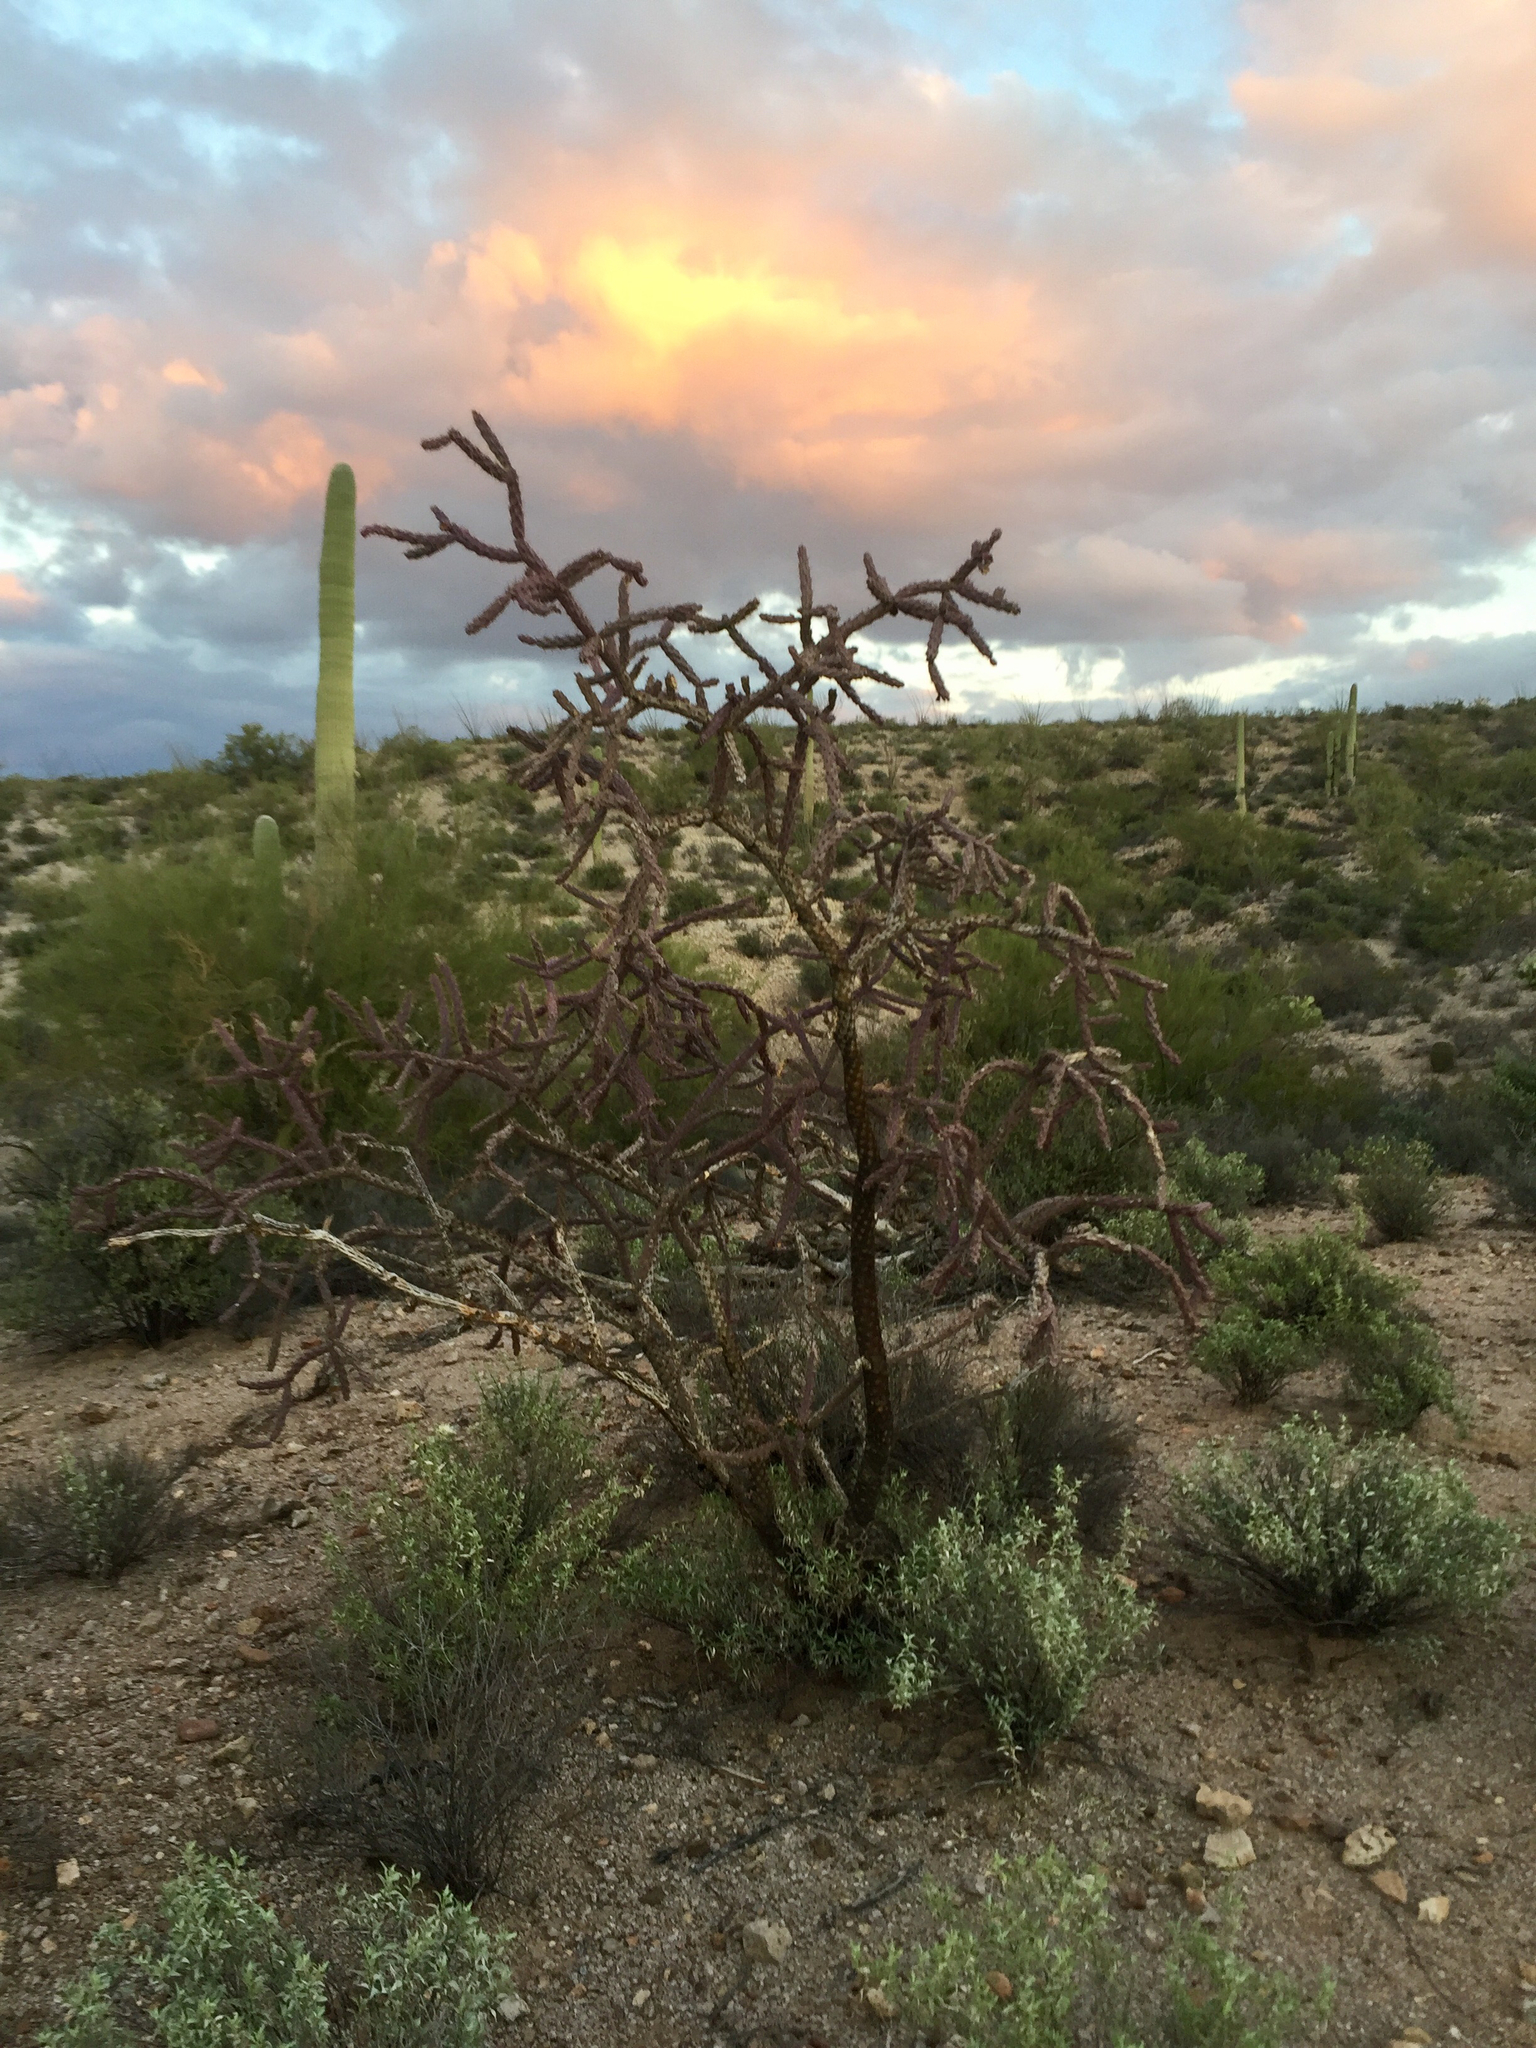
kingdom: Plantae
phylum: Tracheophyta
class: Magnoliopsida
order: Caryophyllales
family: Cactaceae
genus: Cylindropuntia
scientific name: Cylindropuntia thurberi
